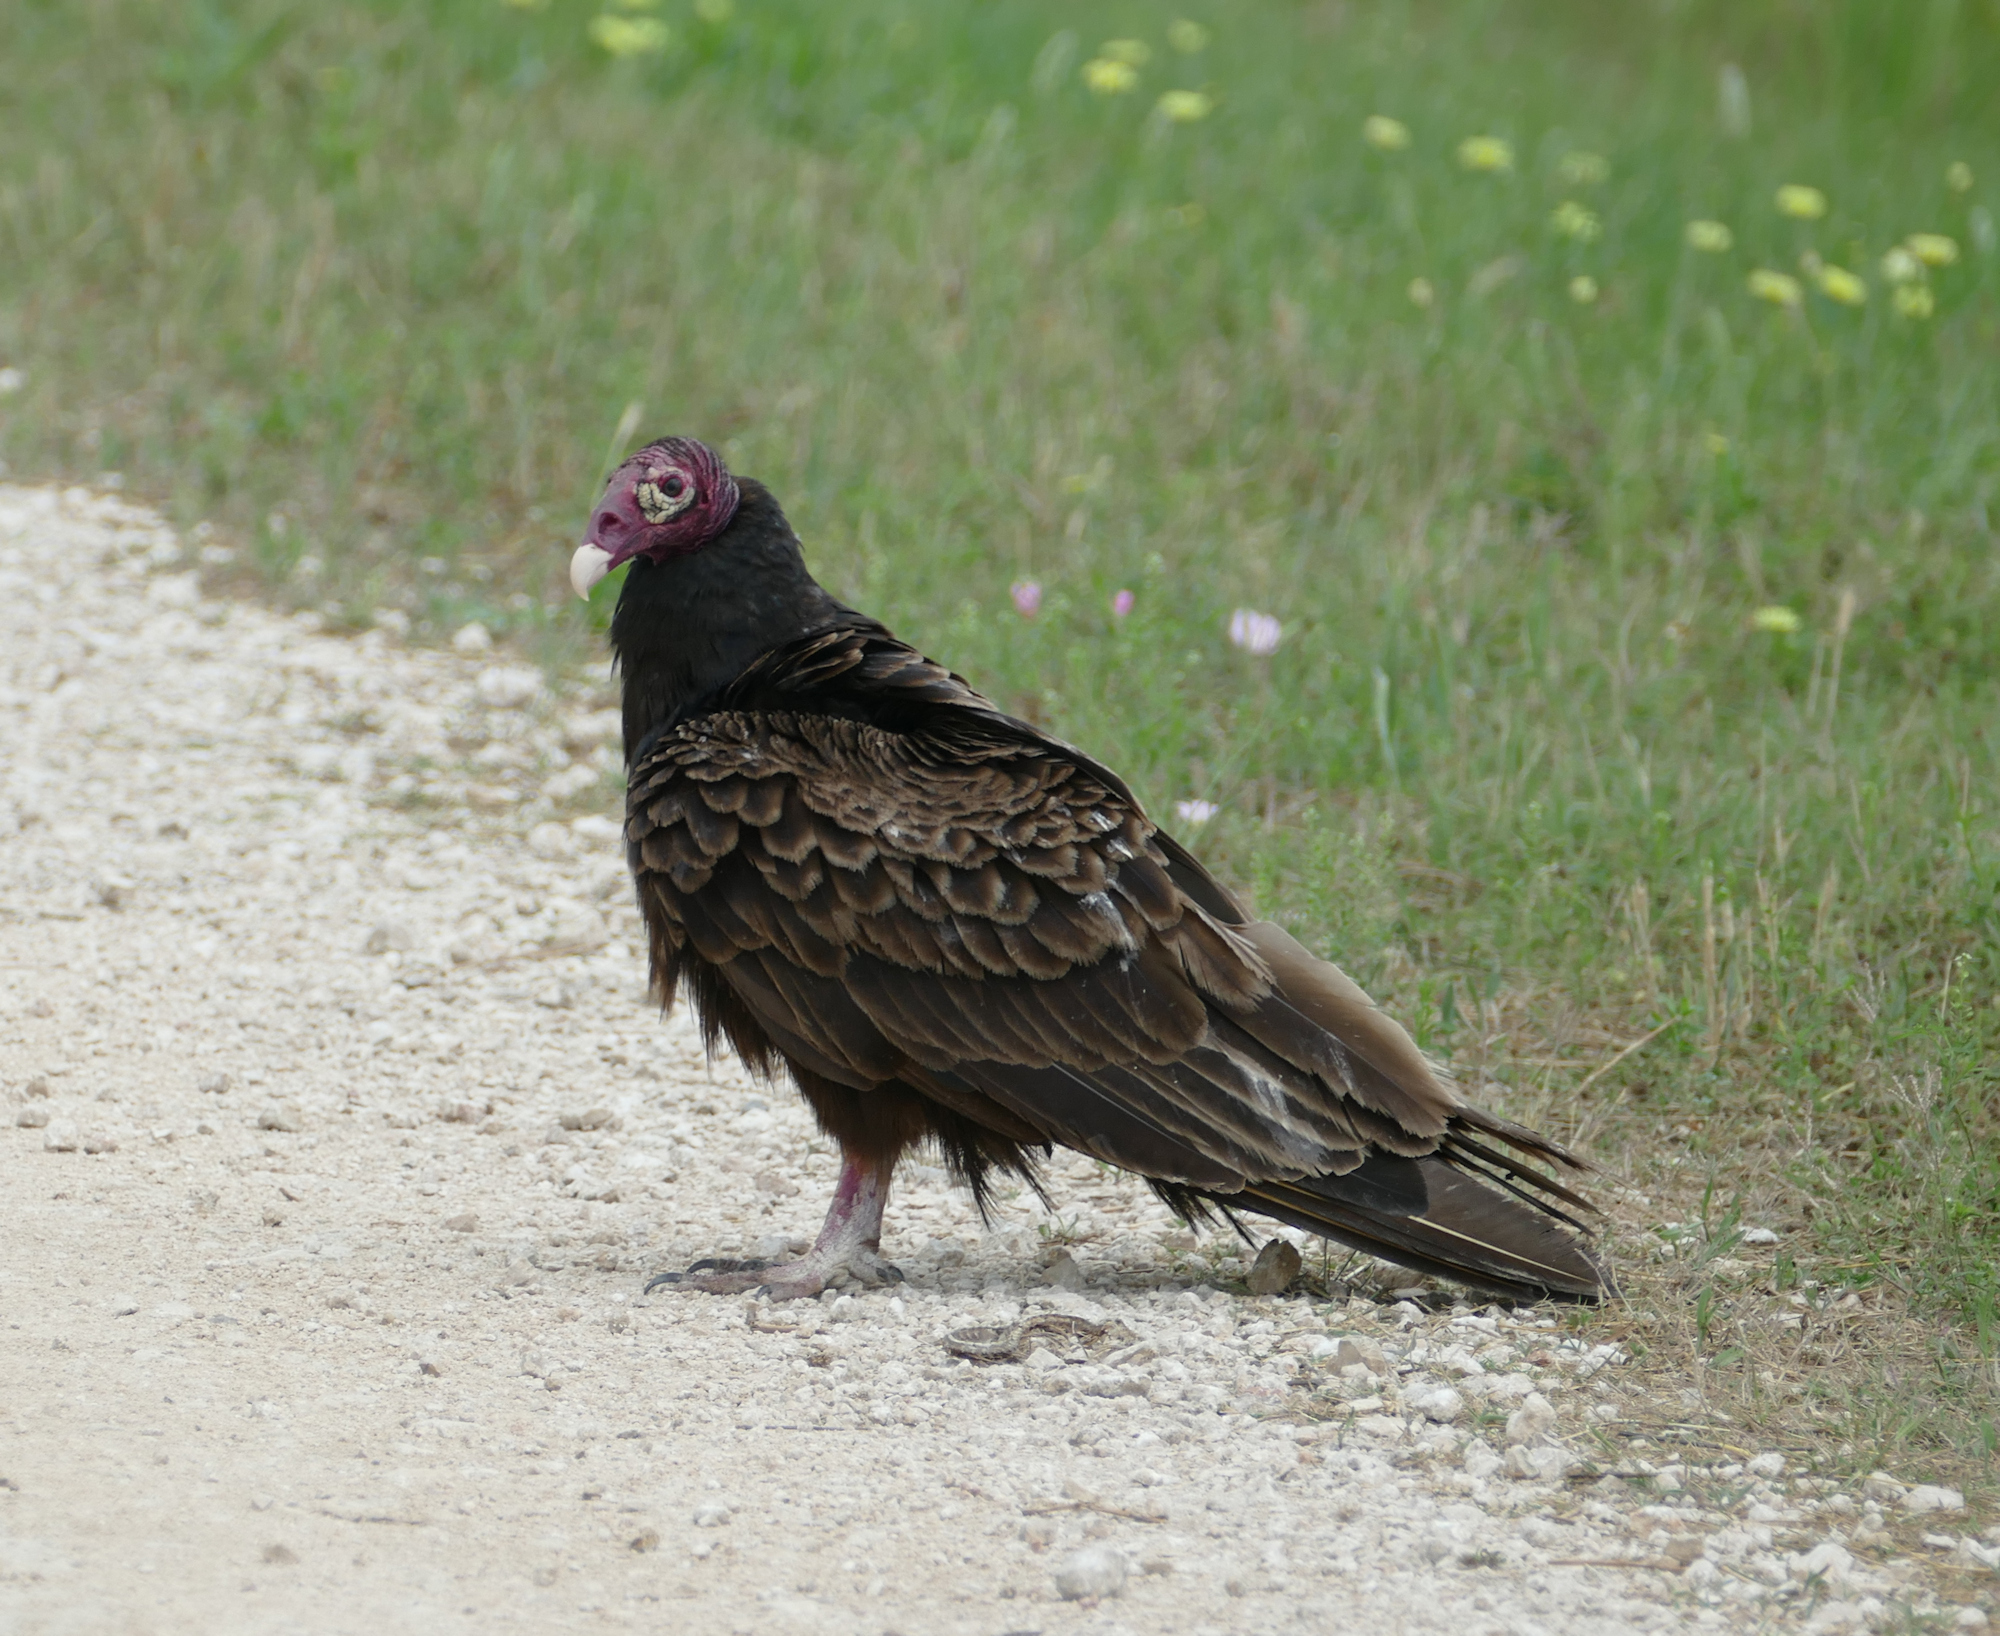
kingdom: Animalia
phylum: Chordata
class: Aves
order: Accipitriformes
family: Cathartidae
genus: Cathartes
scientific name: Cathartes aura
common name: Turkey vulture
